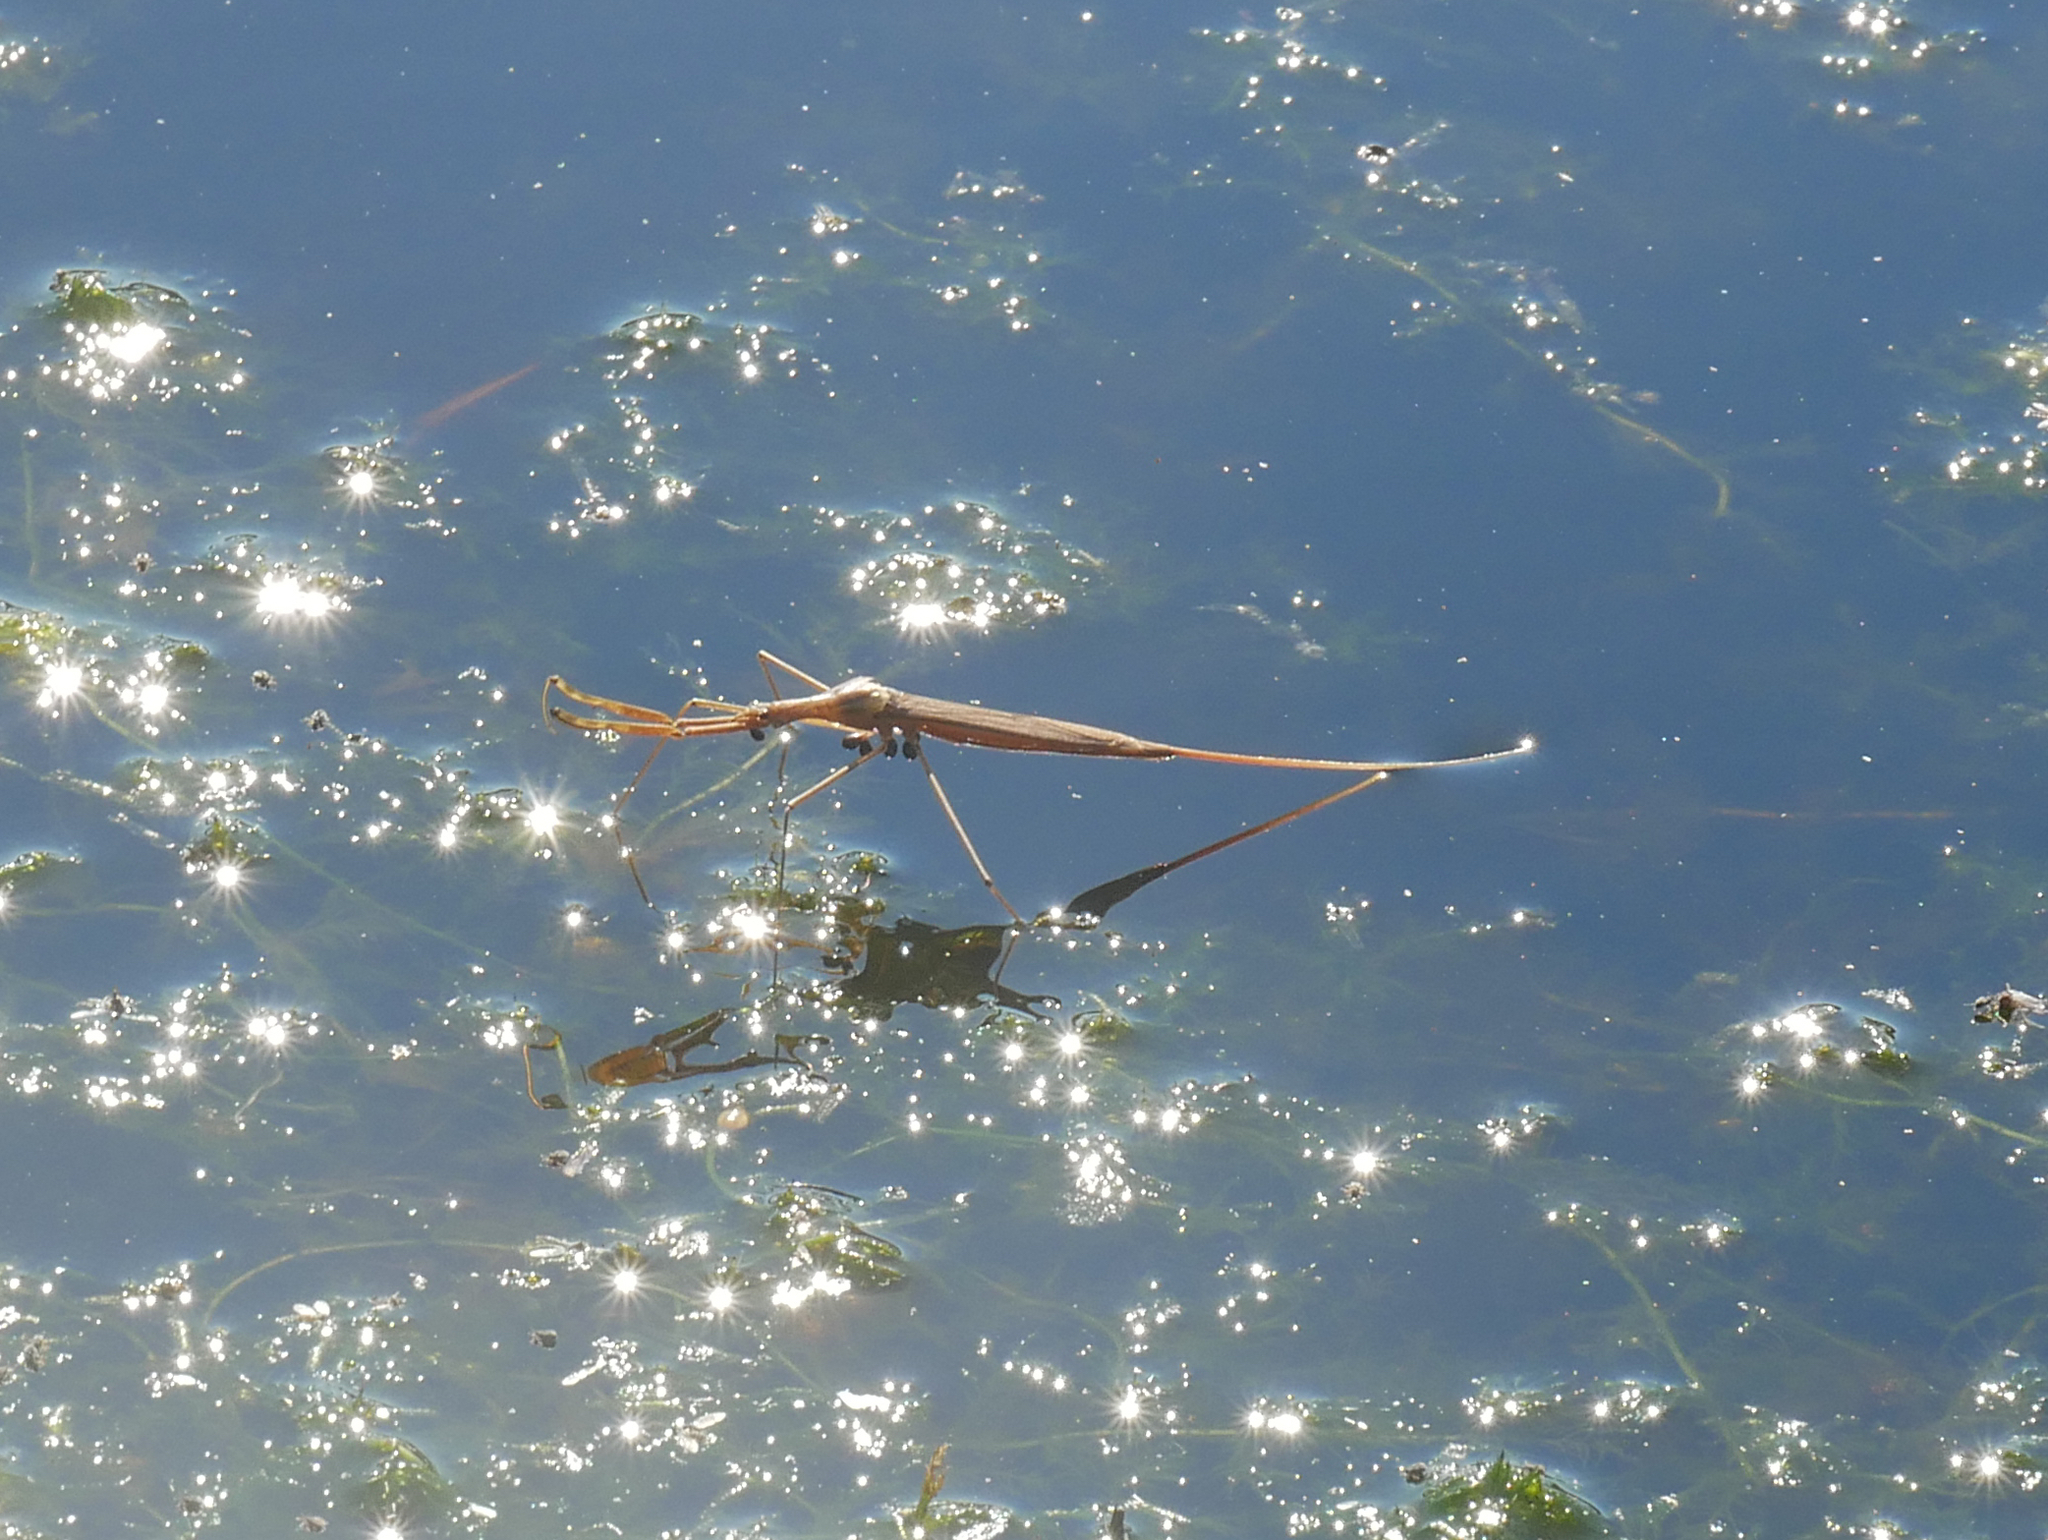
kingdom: Animalia
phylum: Arthropoda
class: Insecta
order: Hemiptera
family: Nepidae
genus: Ranatra
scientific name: Ranatra linearis
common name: Water stick insect
